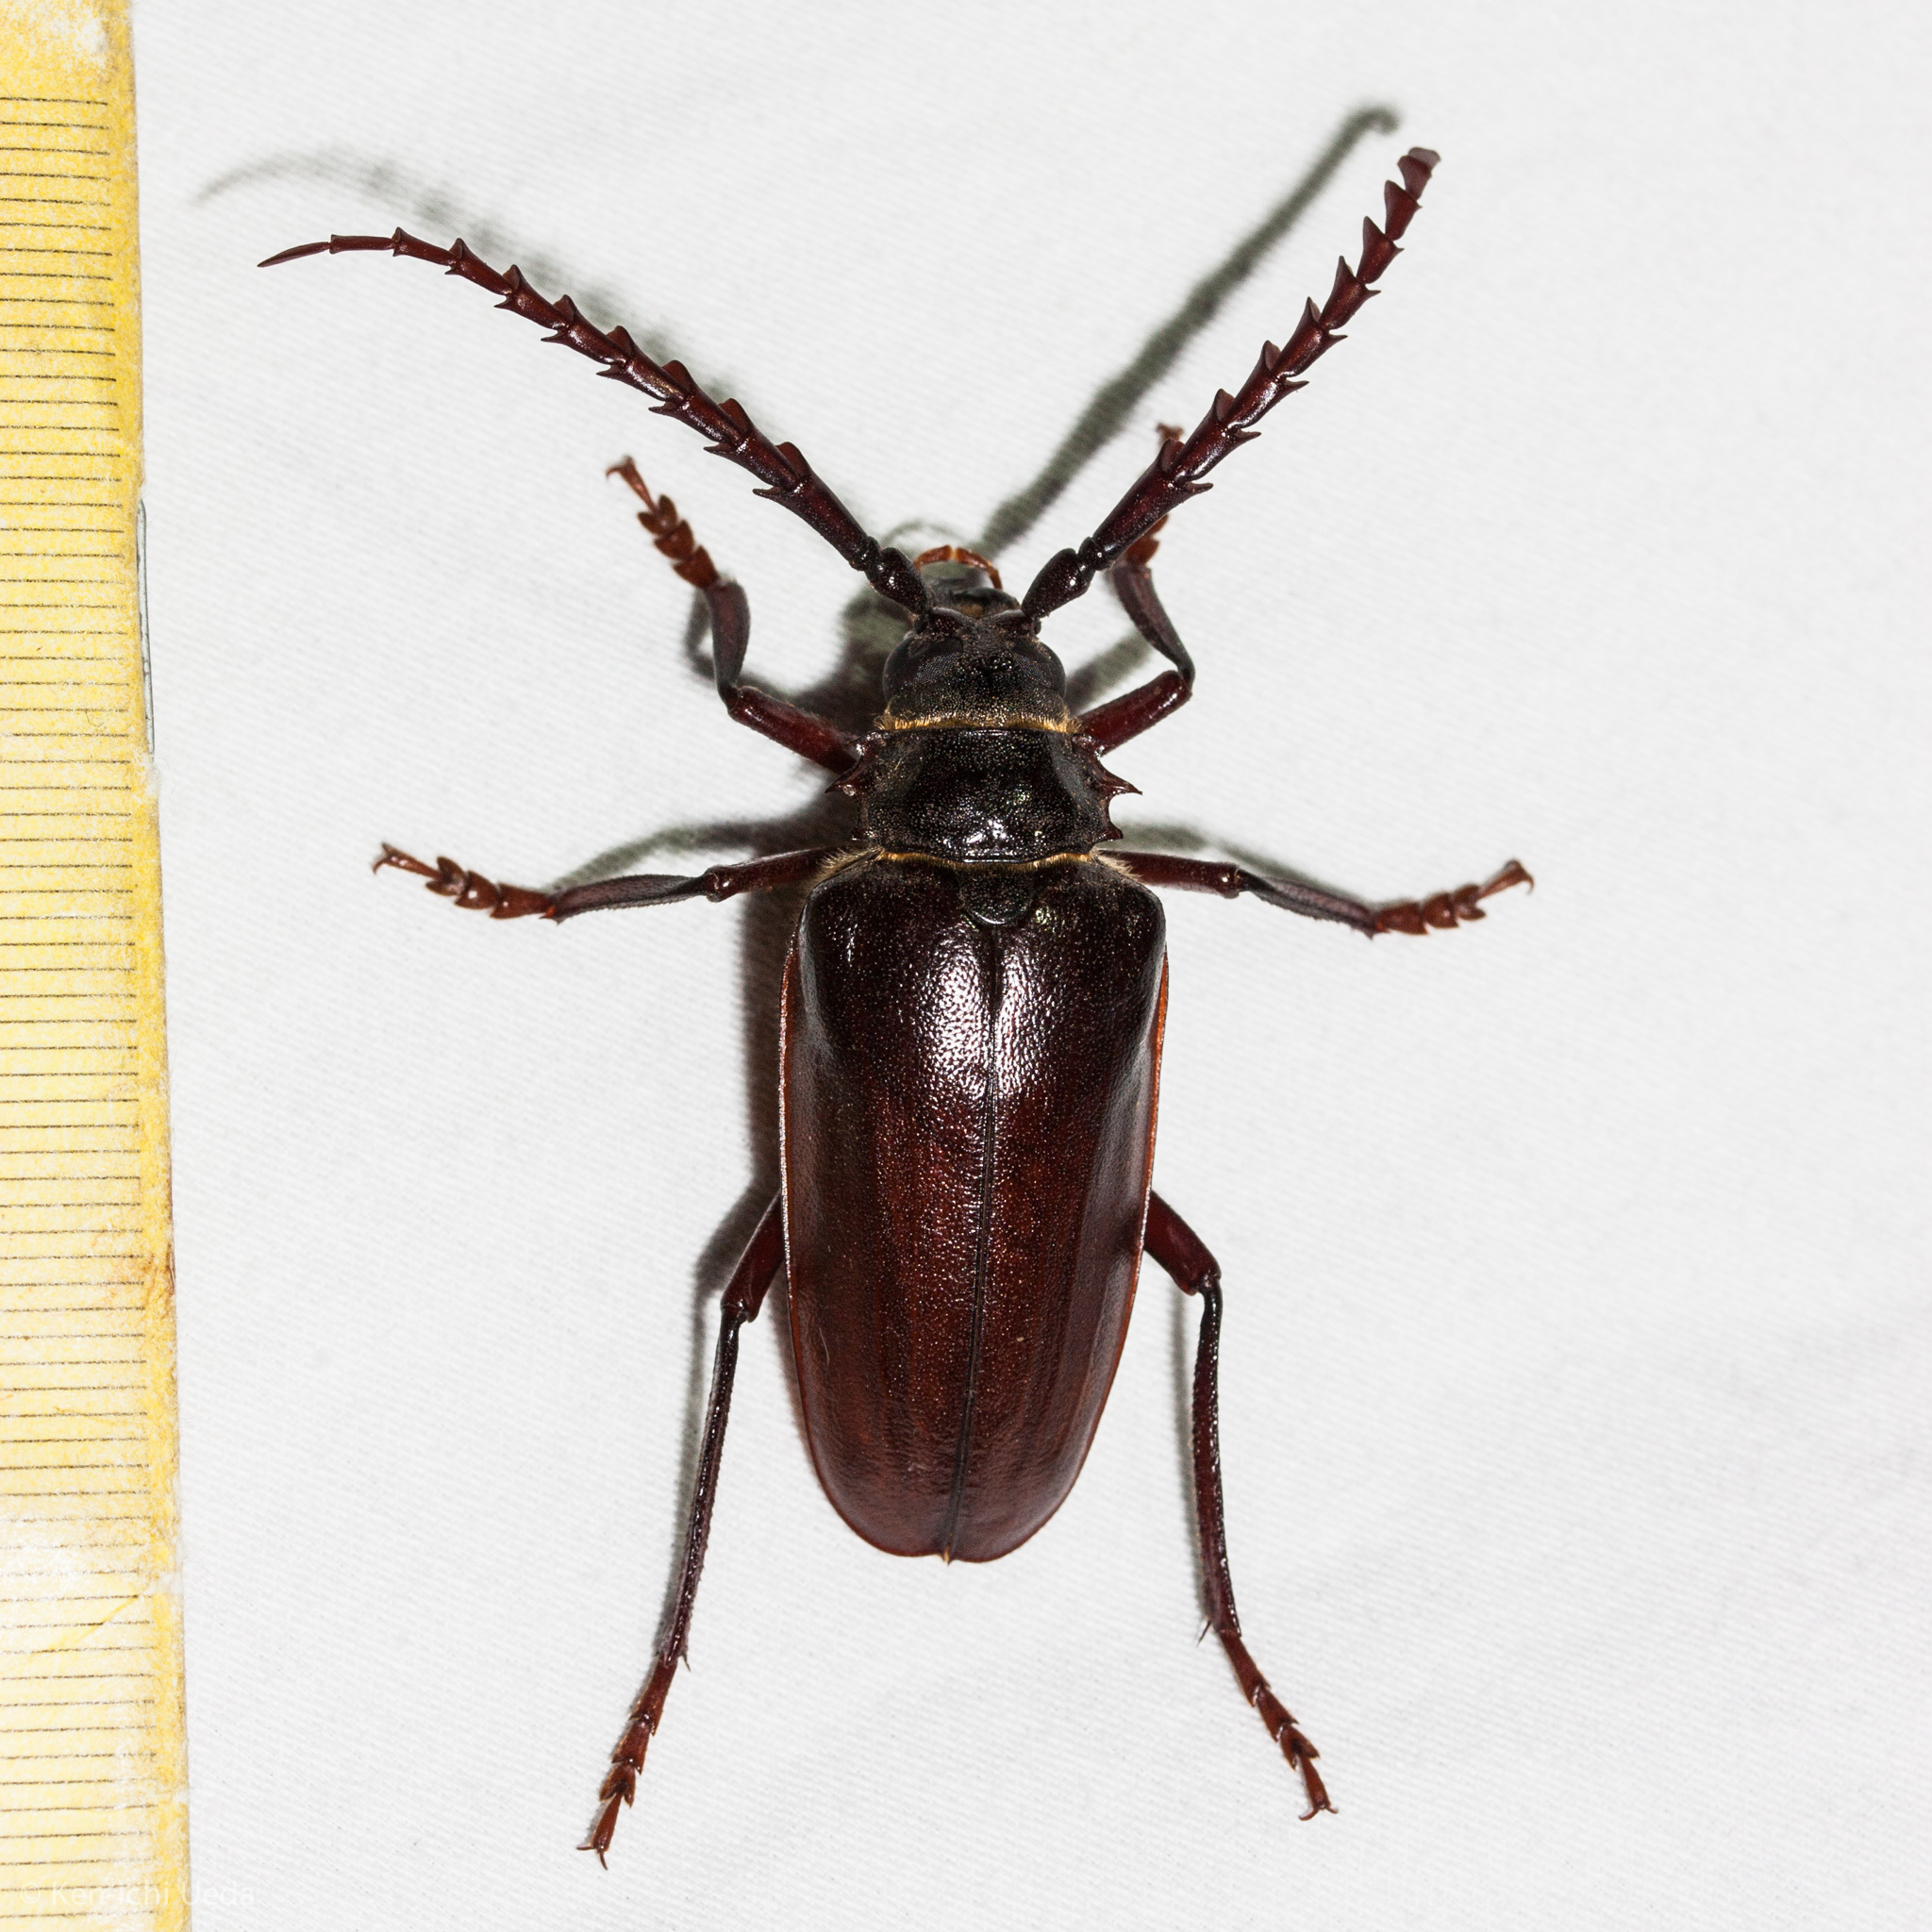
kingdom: Animalia
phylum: Arthropoda
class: Insecta
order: Coleoptera
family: Cerambycidae
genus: Prionus
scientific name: Prionus californicus
